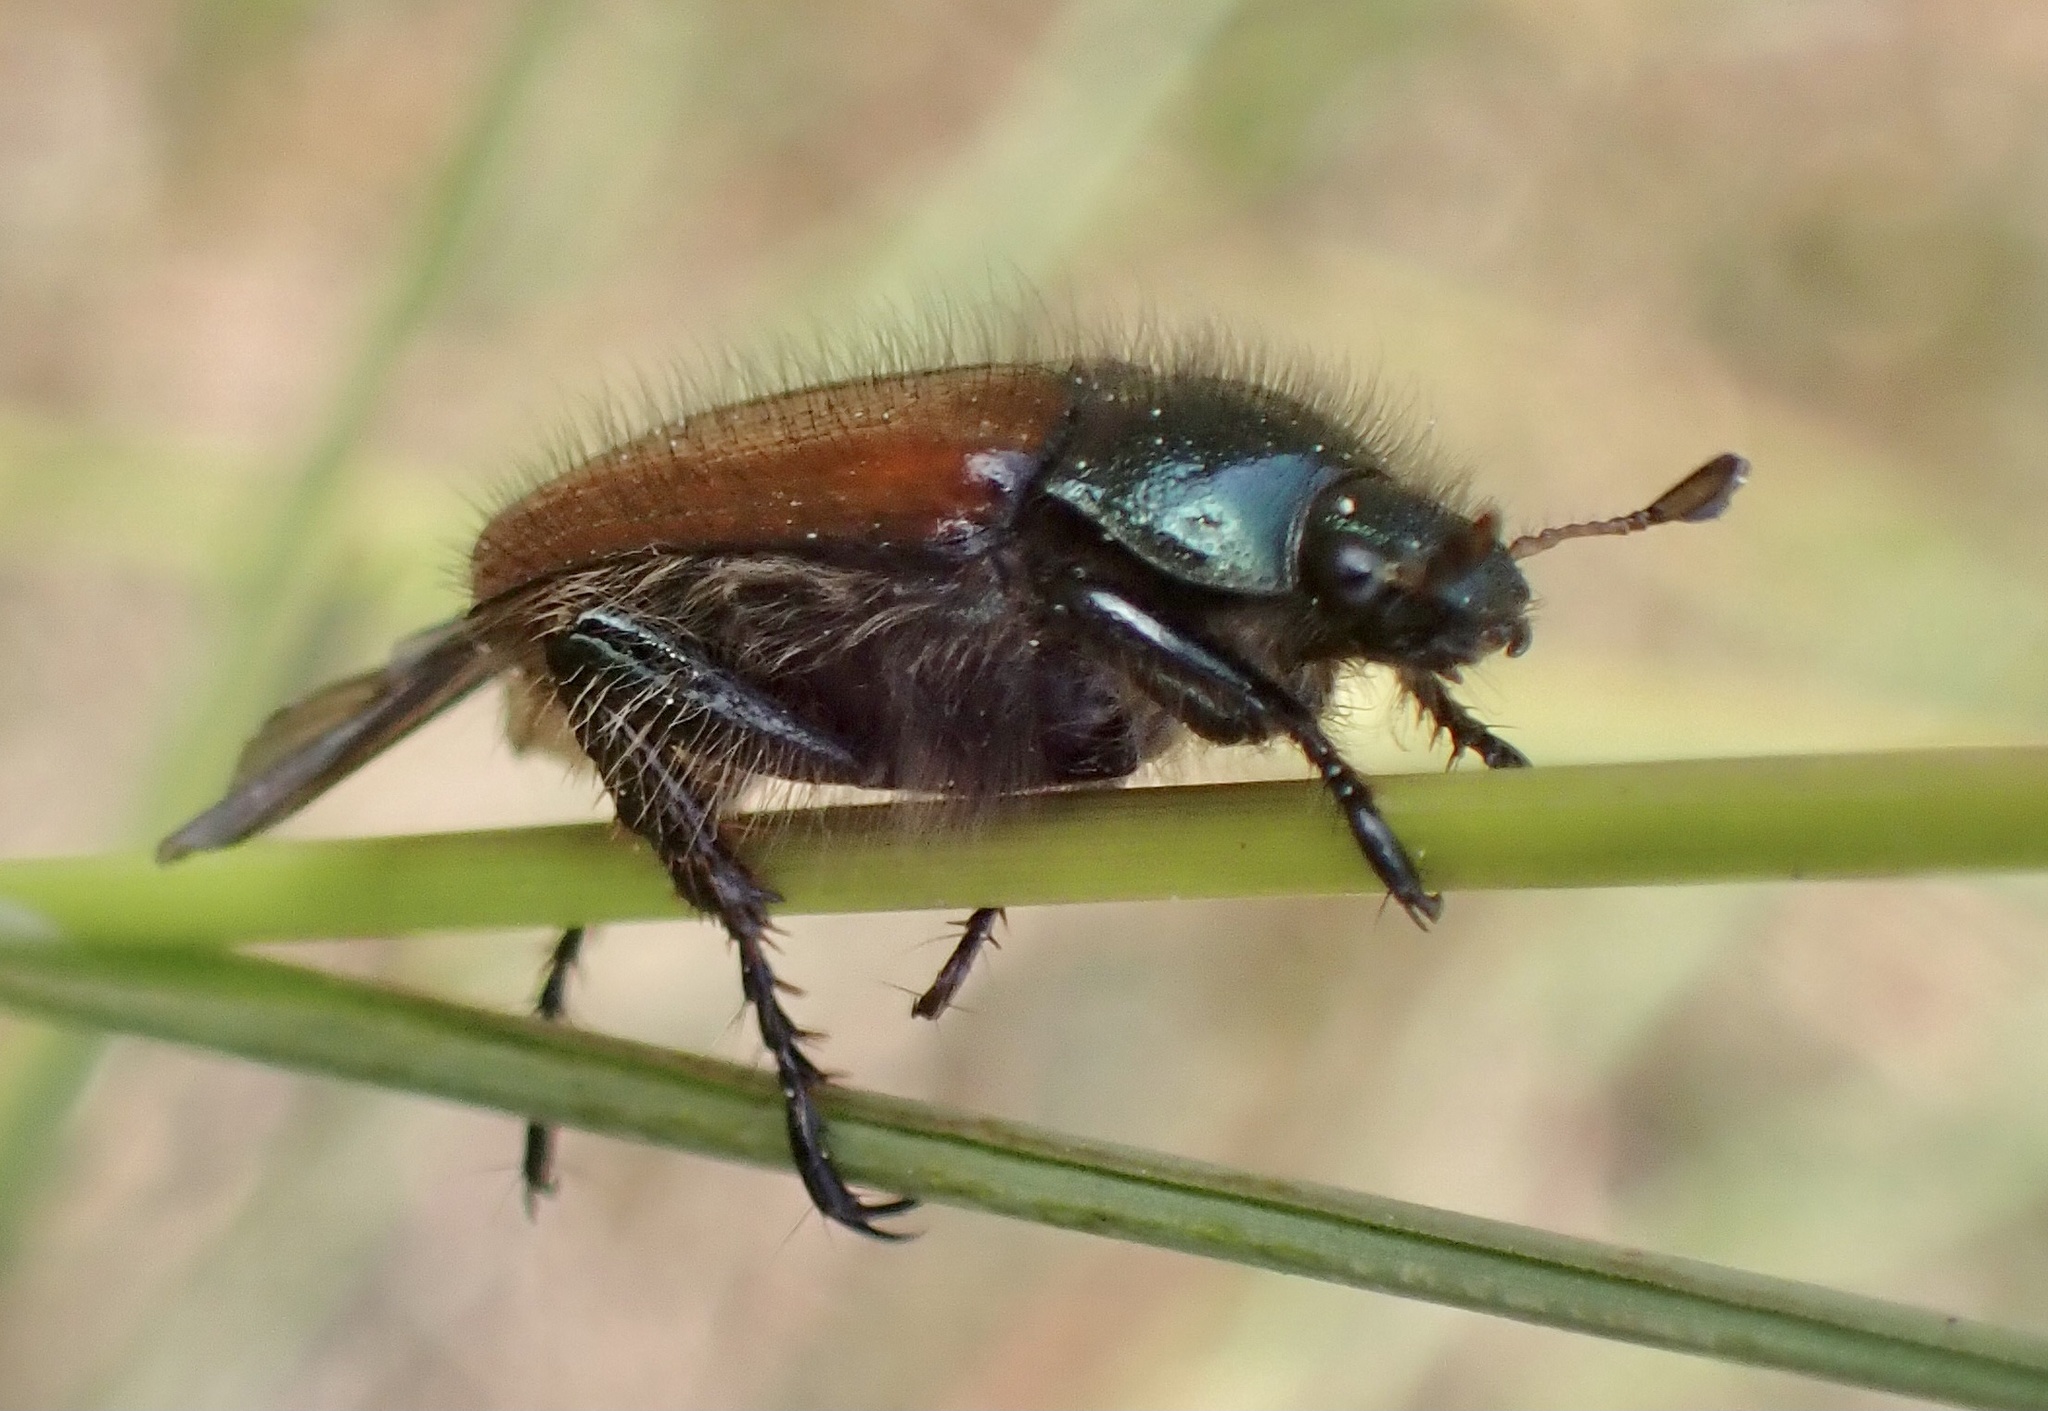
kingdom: Animalia
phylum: Arthropoda
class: Insecta
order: Coleoptera
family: Scarabaeidae
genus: Phyllopertha
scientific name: Phyllopertha horticola
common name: Garden chafer
